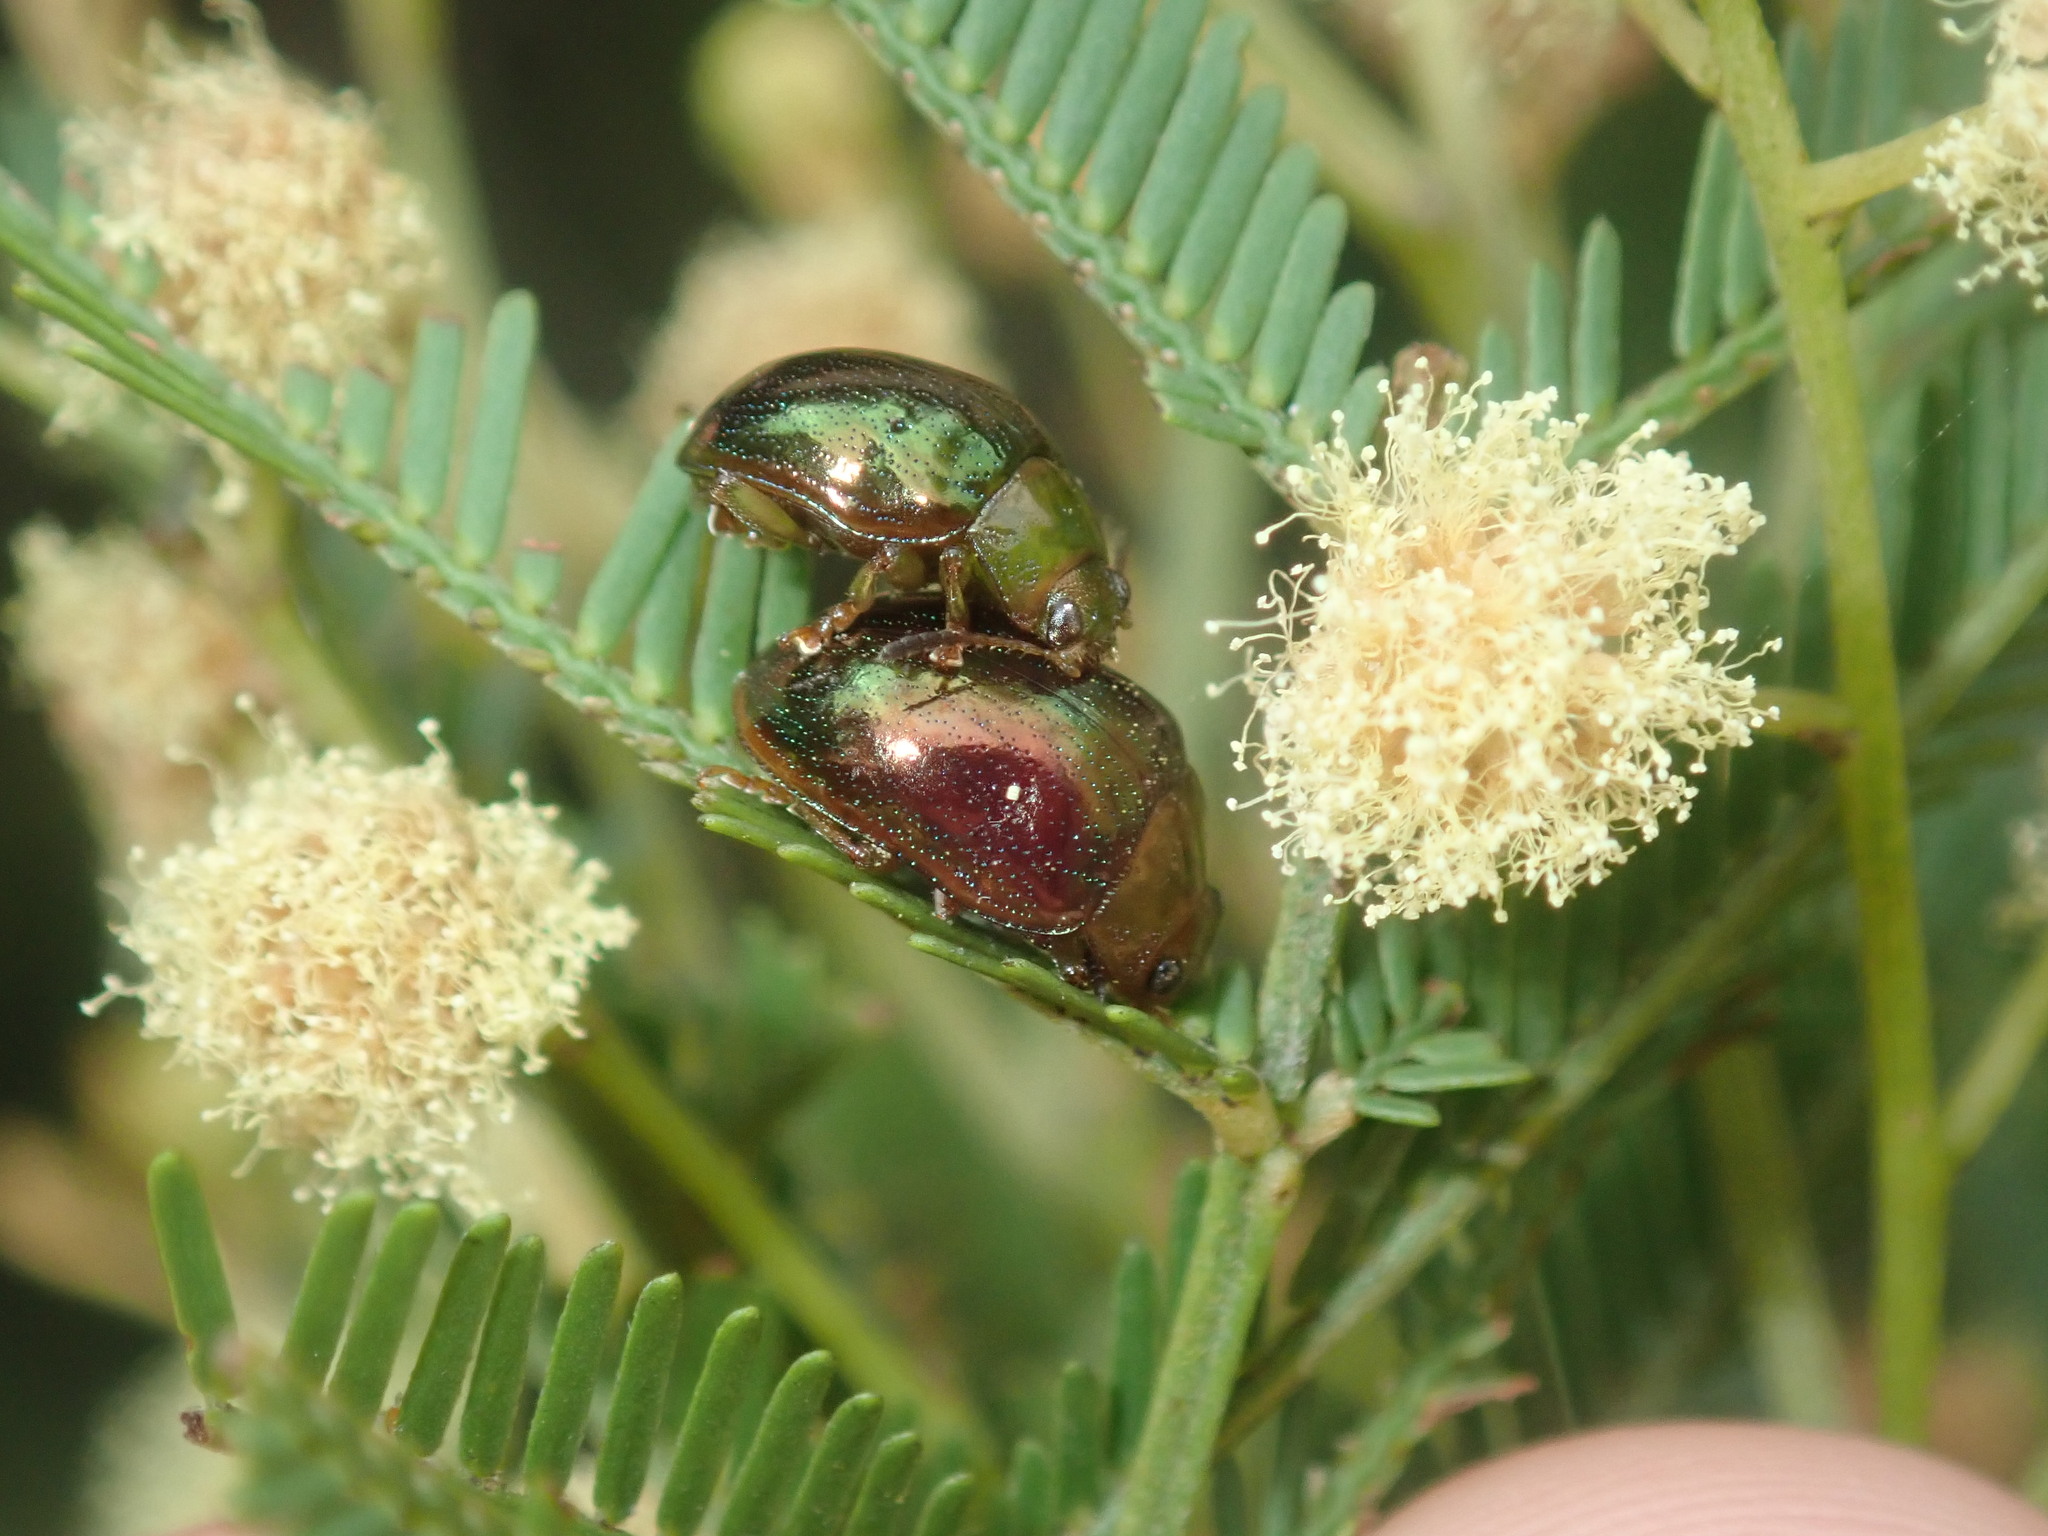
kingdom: Animalia
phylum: Arthropoda
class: Insecta
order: Coleoptera
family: Chrysomelidae
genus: Calomela
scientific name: Calomela
